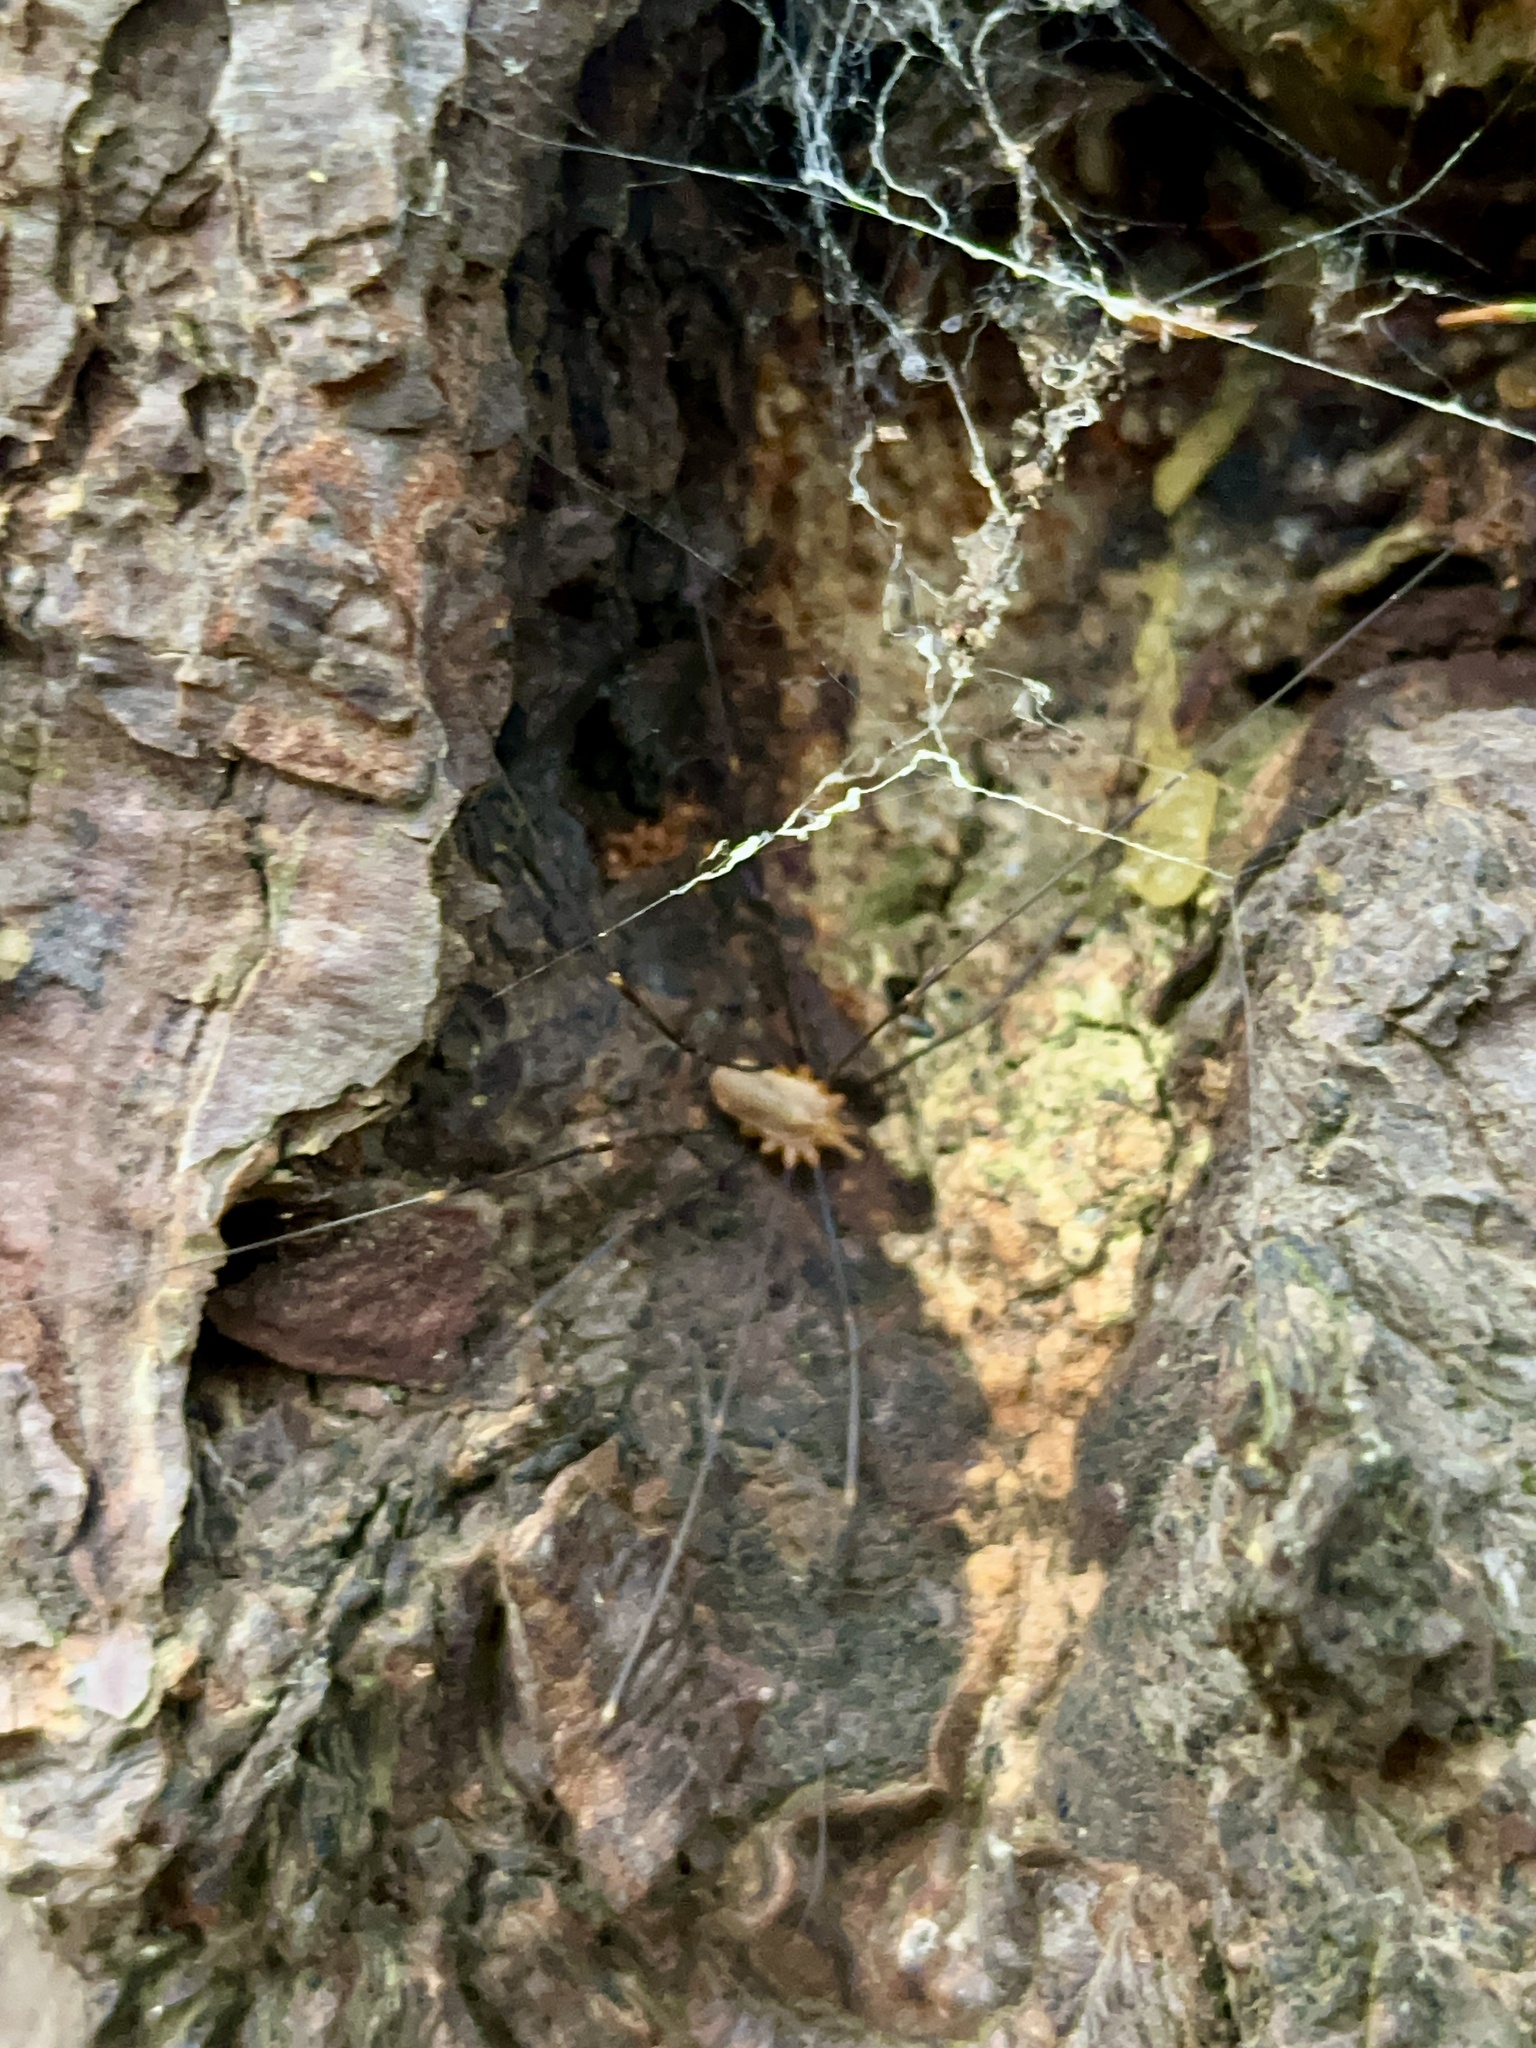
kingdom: Animalia
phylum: Arthropoda
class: Arachnida
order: Opiliones
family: Phalangiidae
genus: Opilio
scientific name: Opilio canestrinii
